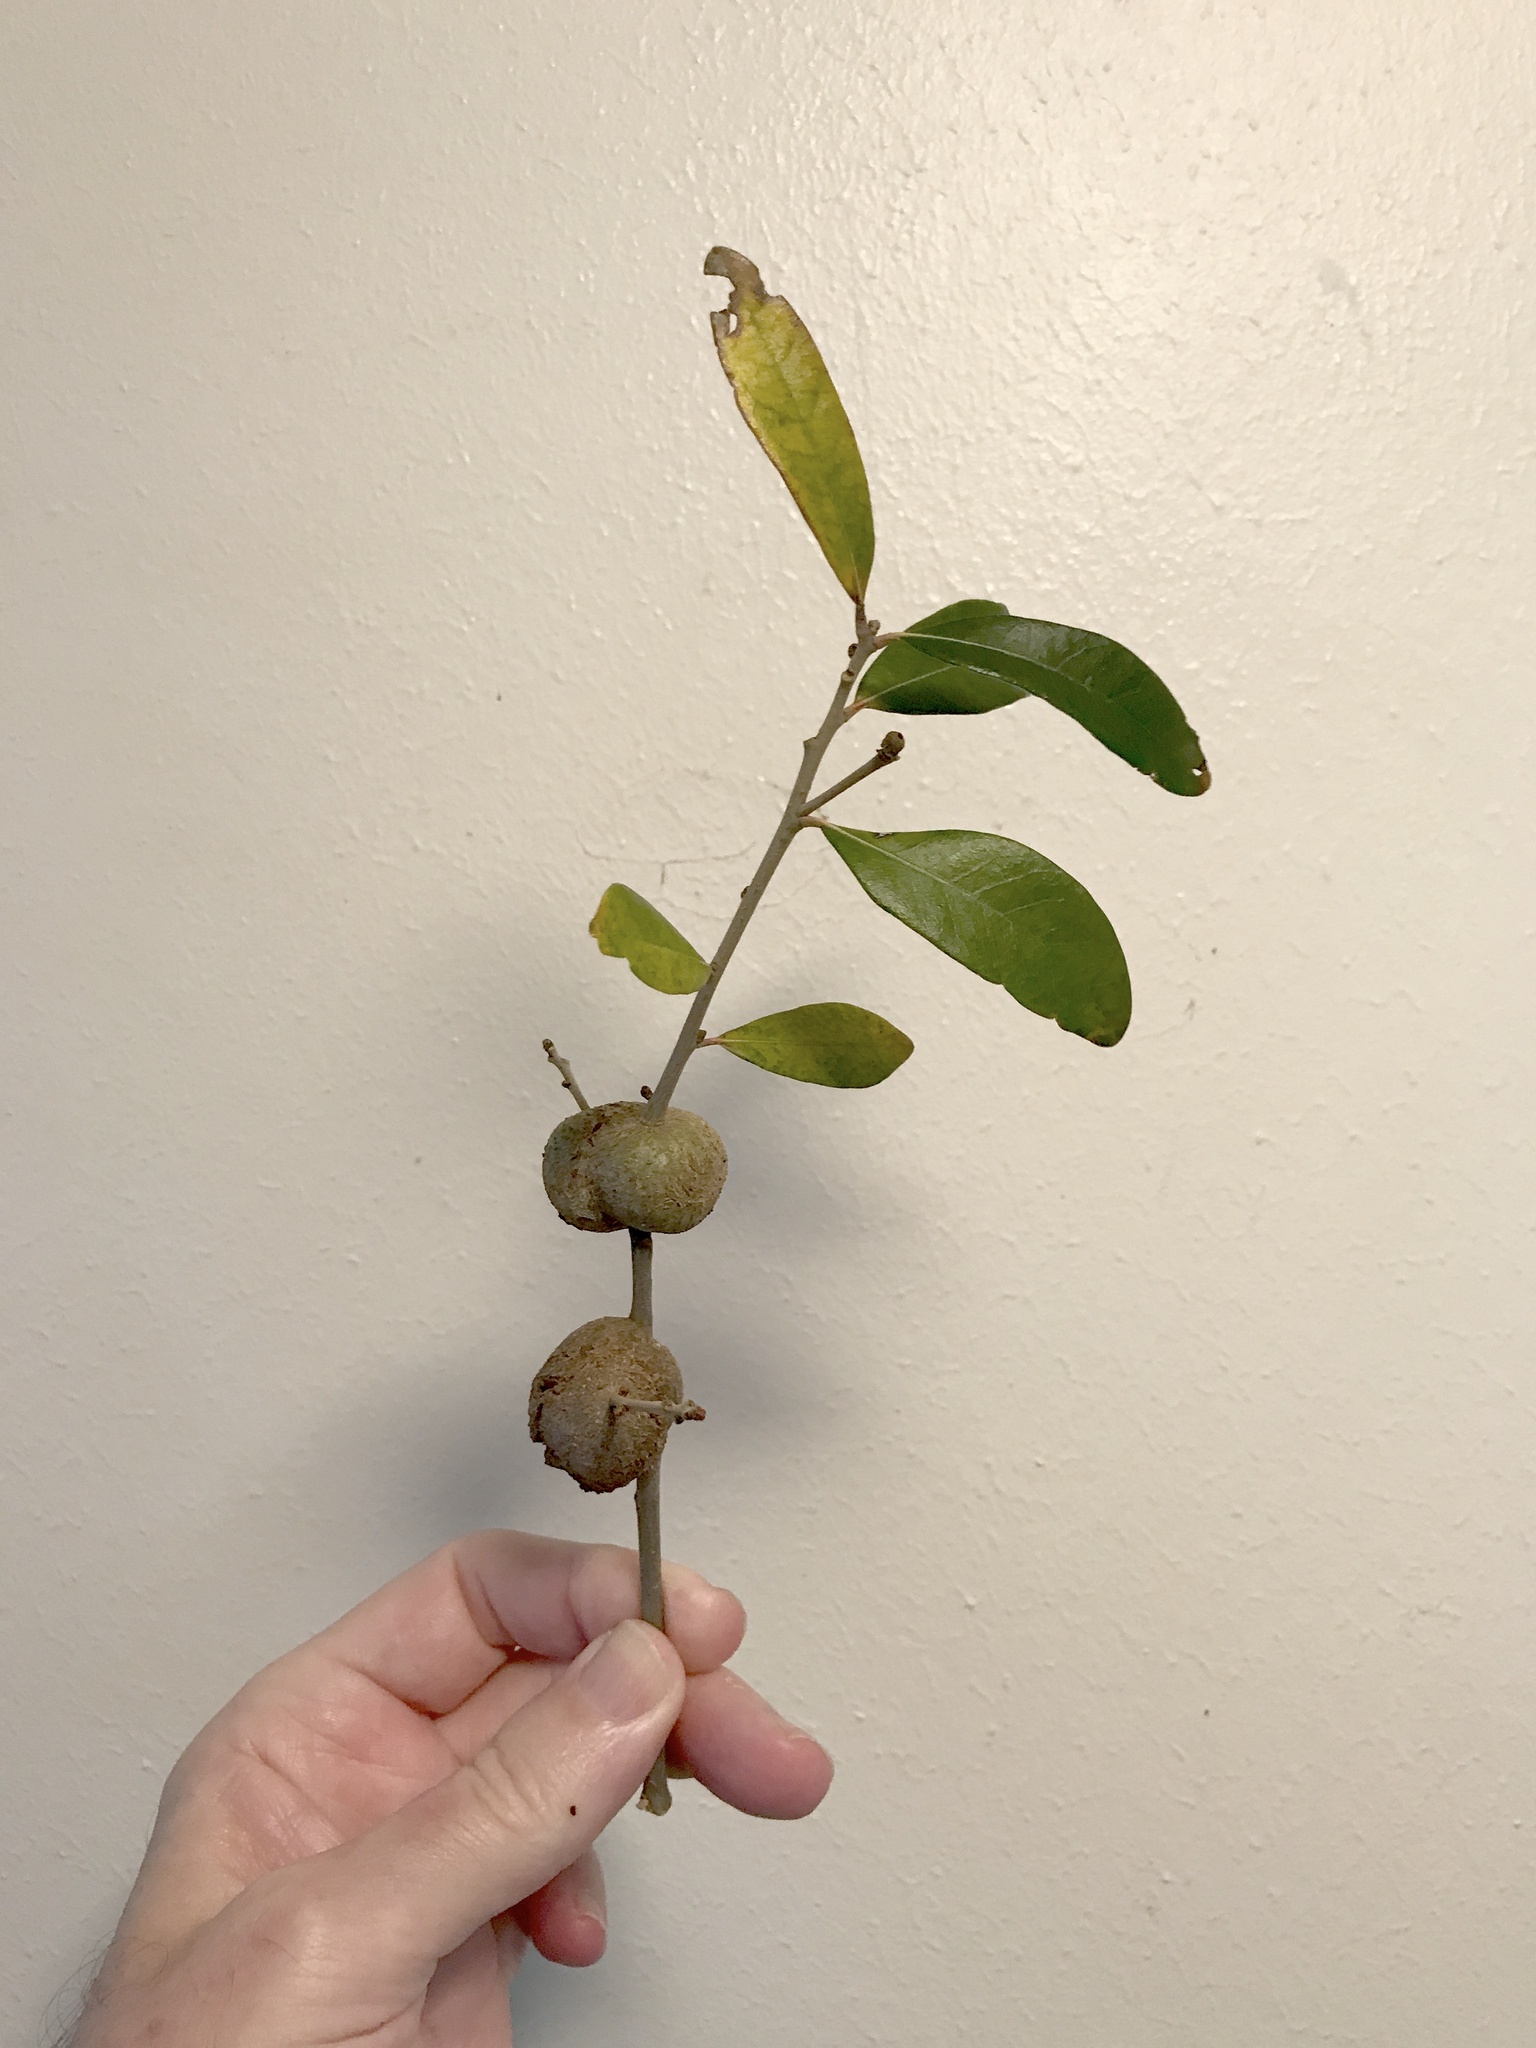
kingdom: Animalia
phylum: Arthropoda
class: Insecta
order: Hymenoptera
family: Cynipidae
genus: Callirhytis
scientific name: Callirhytis
